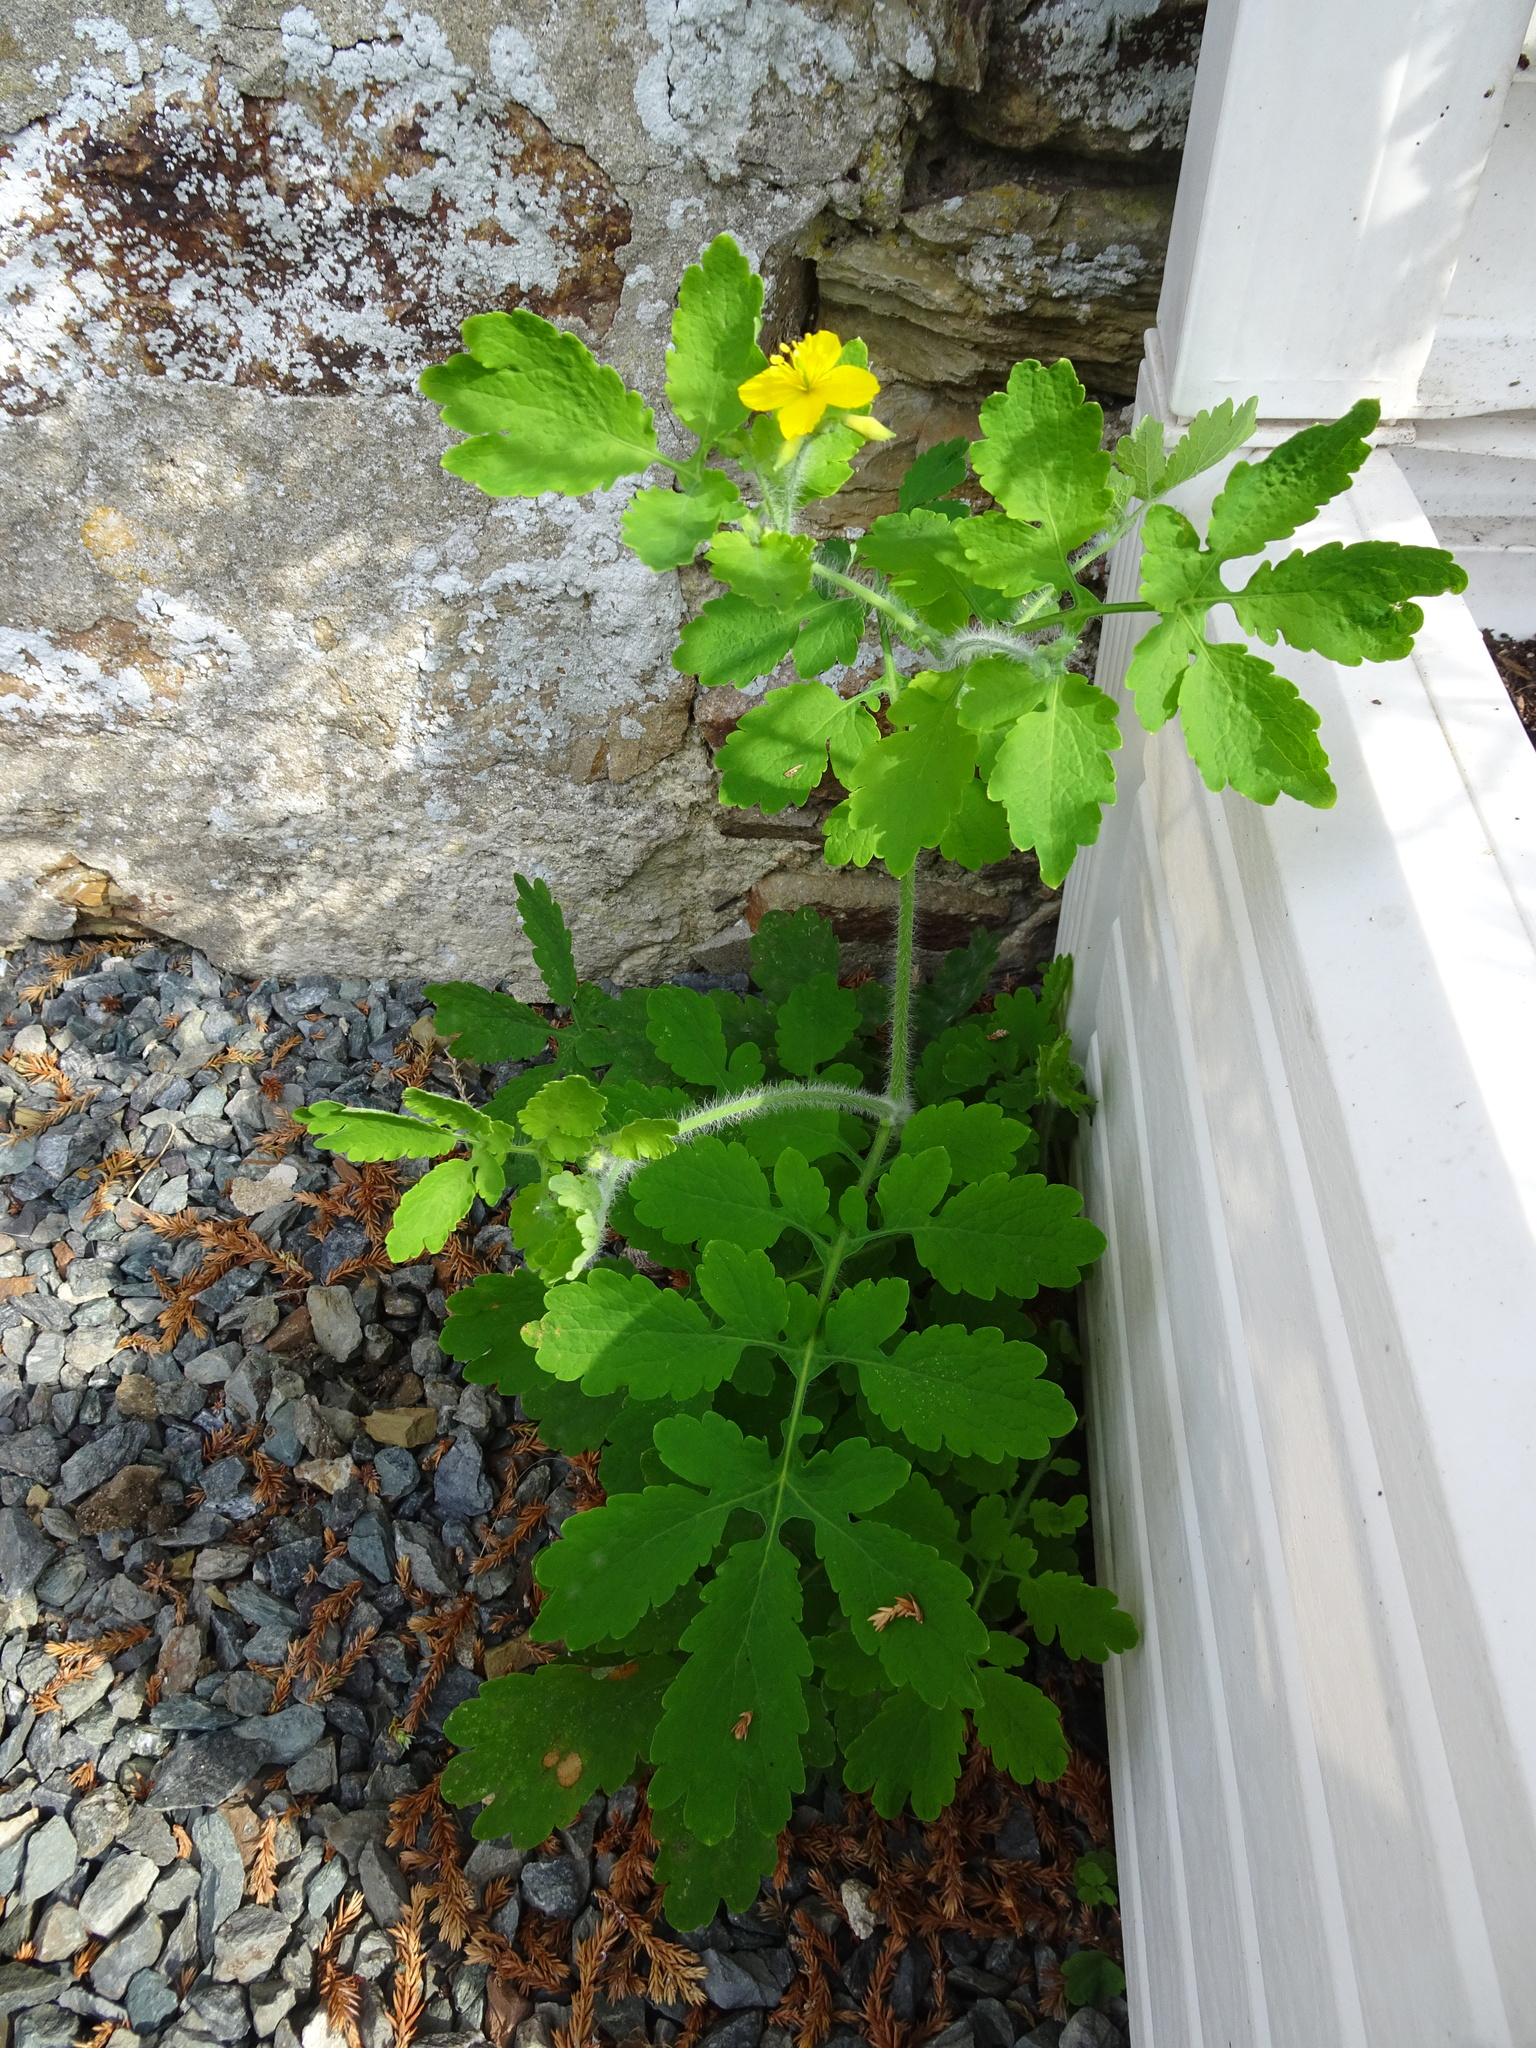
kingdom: Plantae
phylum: Tracheophyta
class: Magnoliopsida
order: Ranunculales
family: Papaveraceae
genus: Chelidonium
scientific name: Chelidonium majus
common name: Greater celandine
